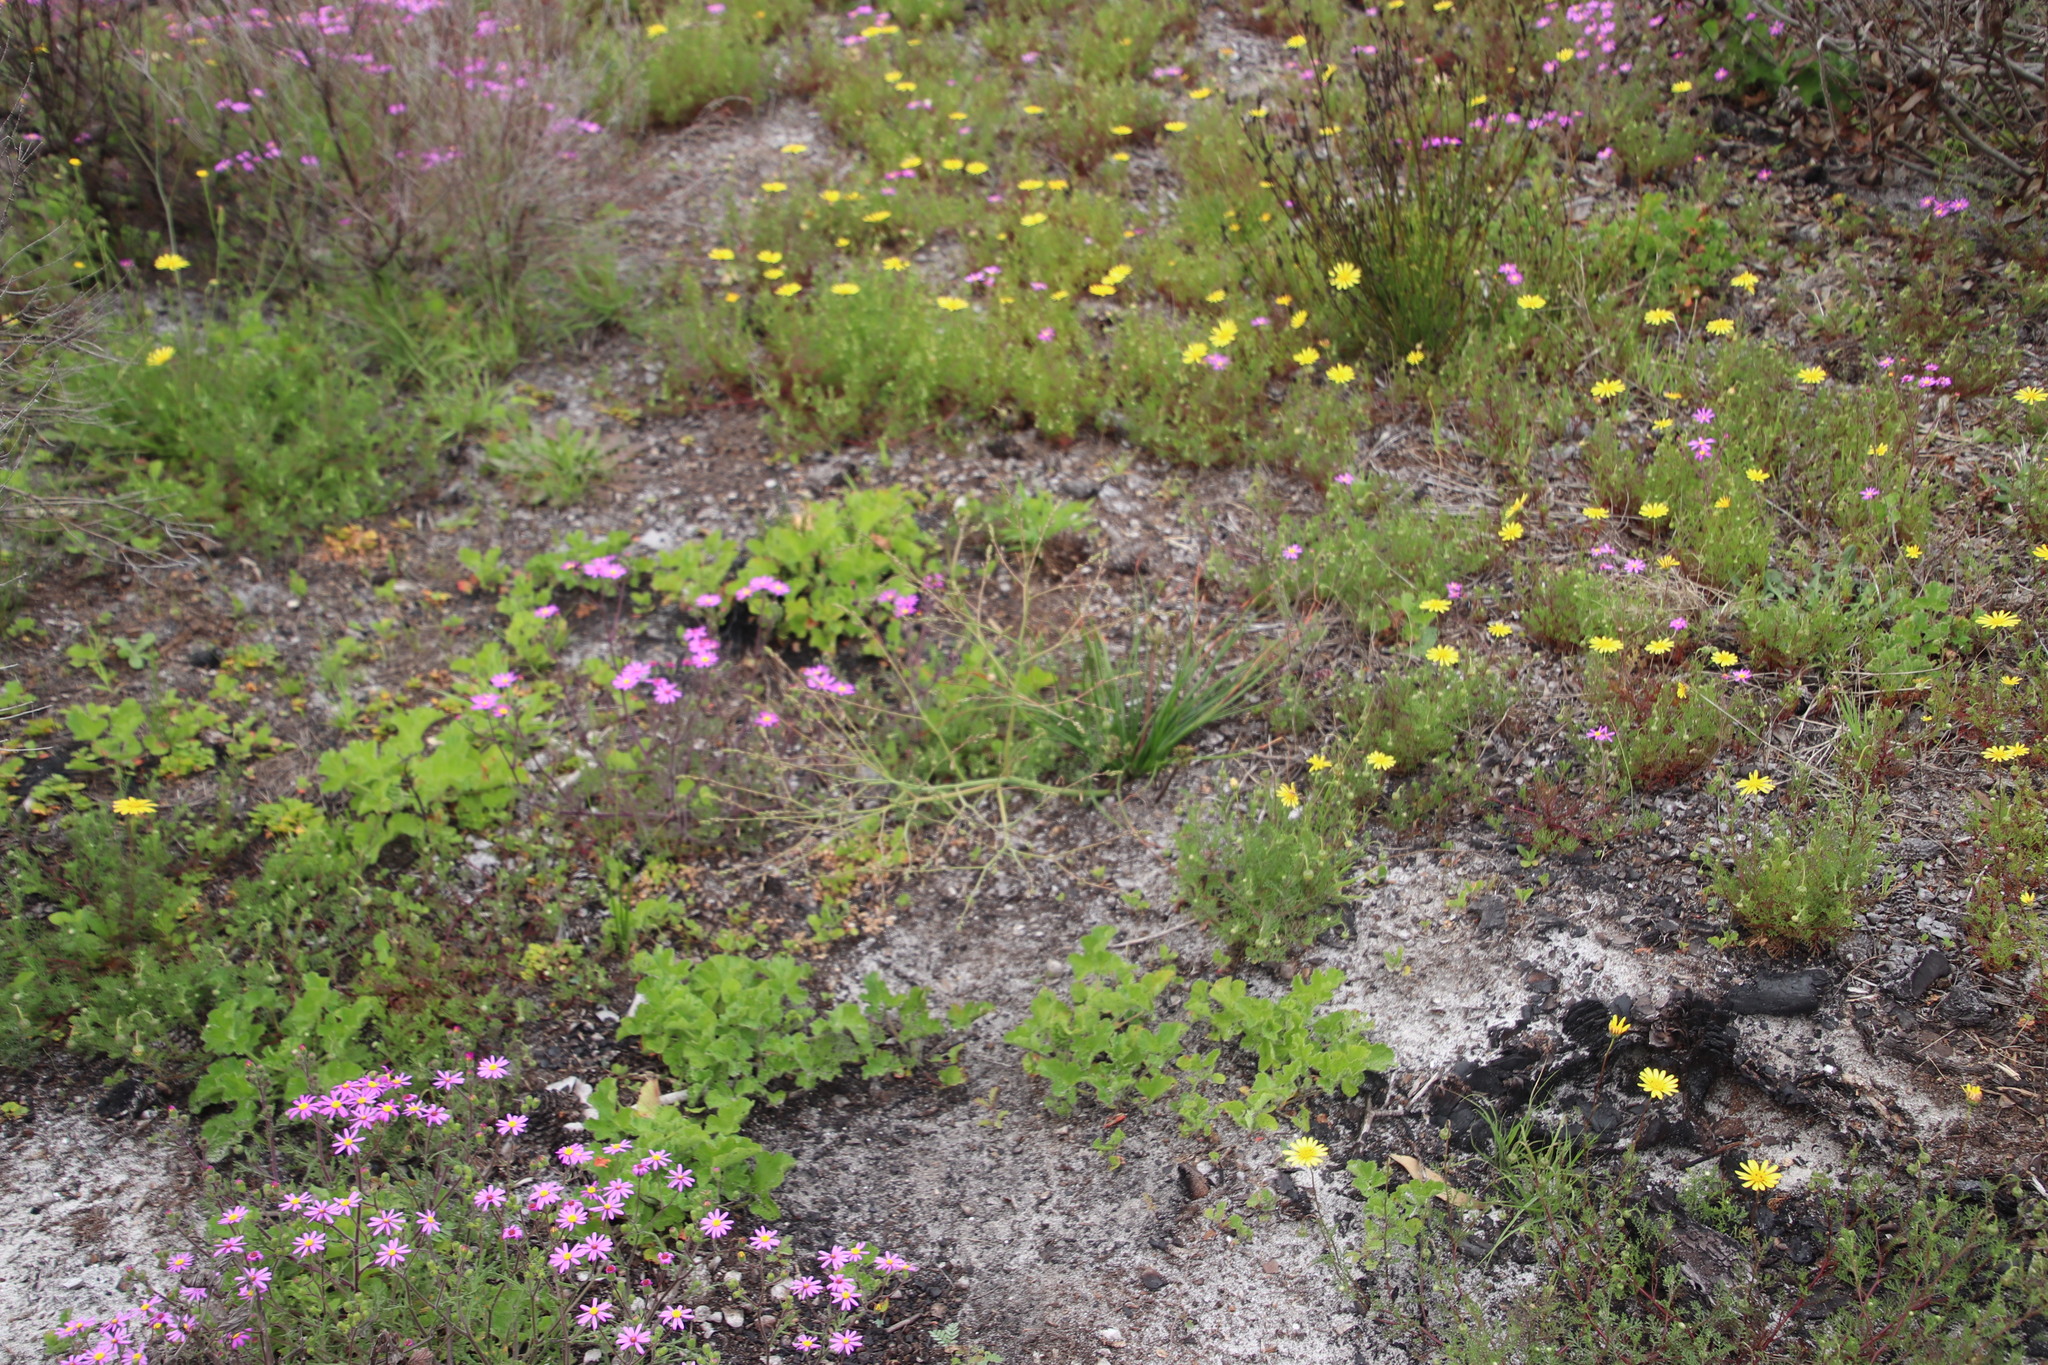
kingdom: Plantae
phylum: Tracheophyta
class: Liliopsida
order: Asparagales
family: Asphodelaceae
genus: Trachyandra
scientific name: Trachyandra divaricata
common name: Dune onionweed
